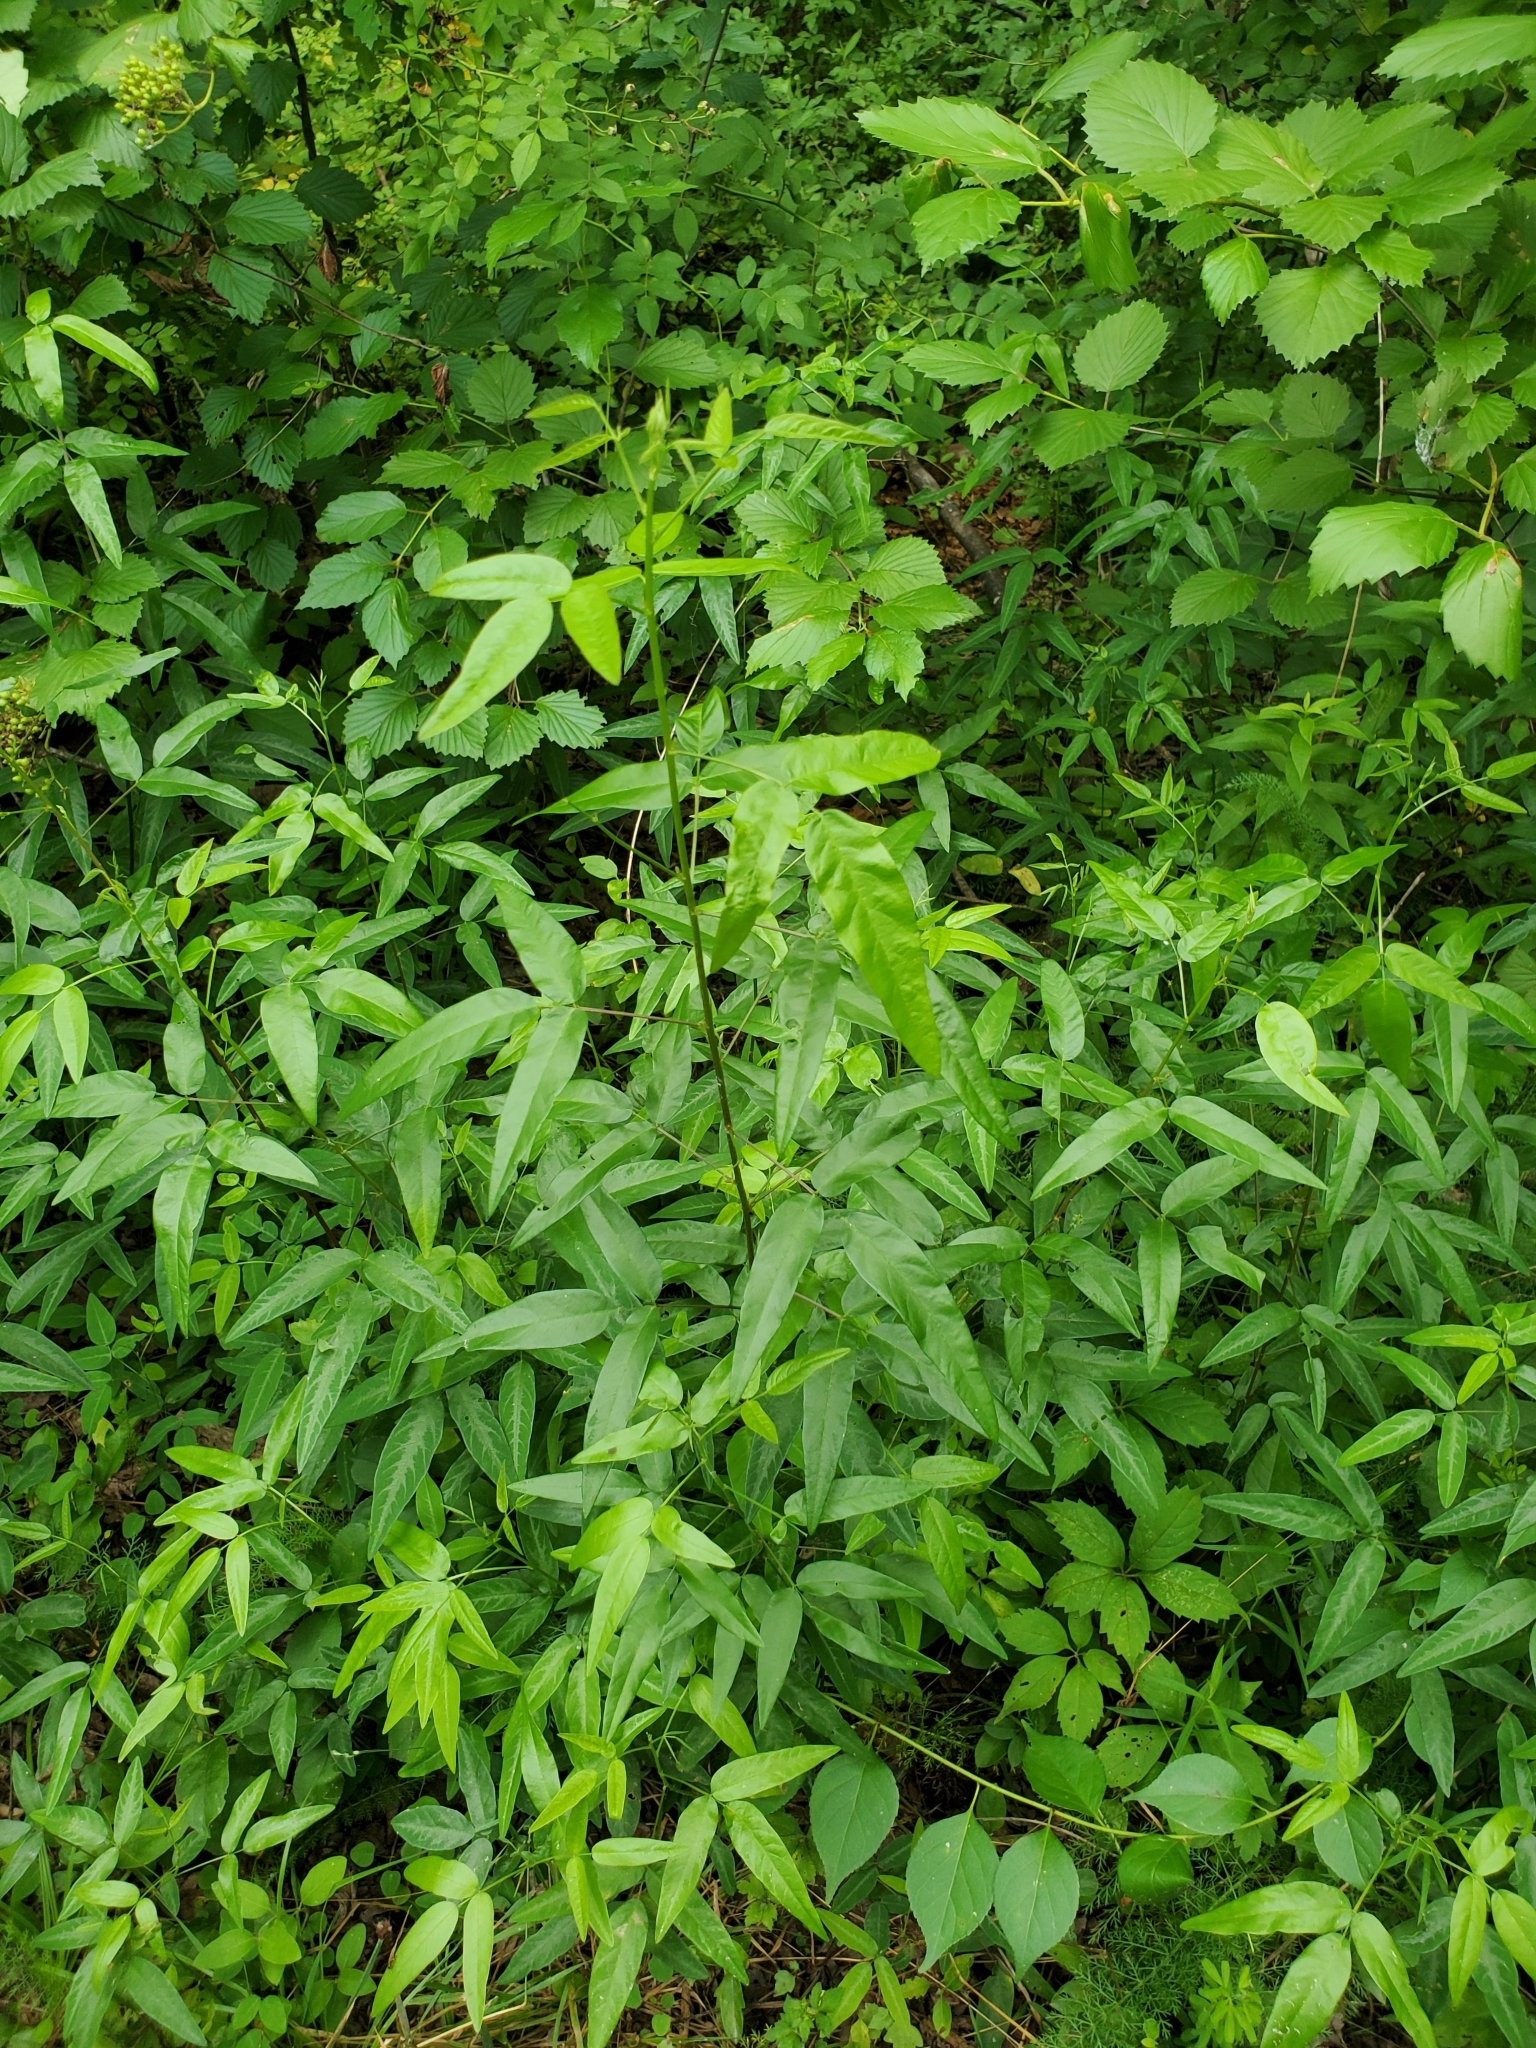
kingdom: Plantae
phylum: Tracheophyta
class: Magnoliopsida
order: Fabales
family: Fabaceae
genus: Desmodium
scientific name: Desmodium paniculatum
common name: Panicled tick-clover
